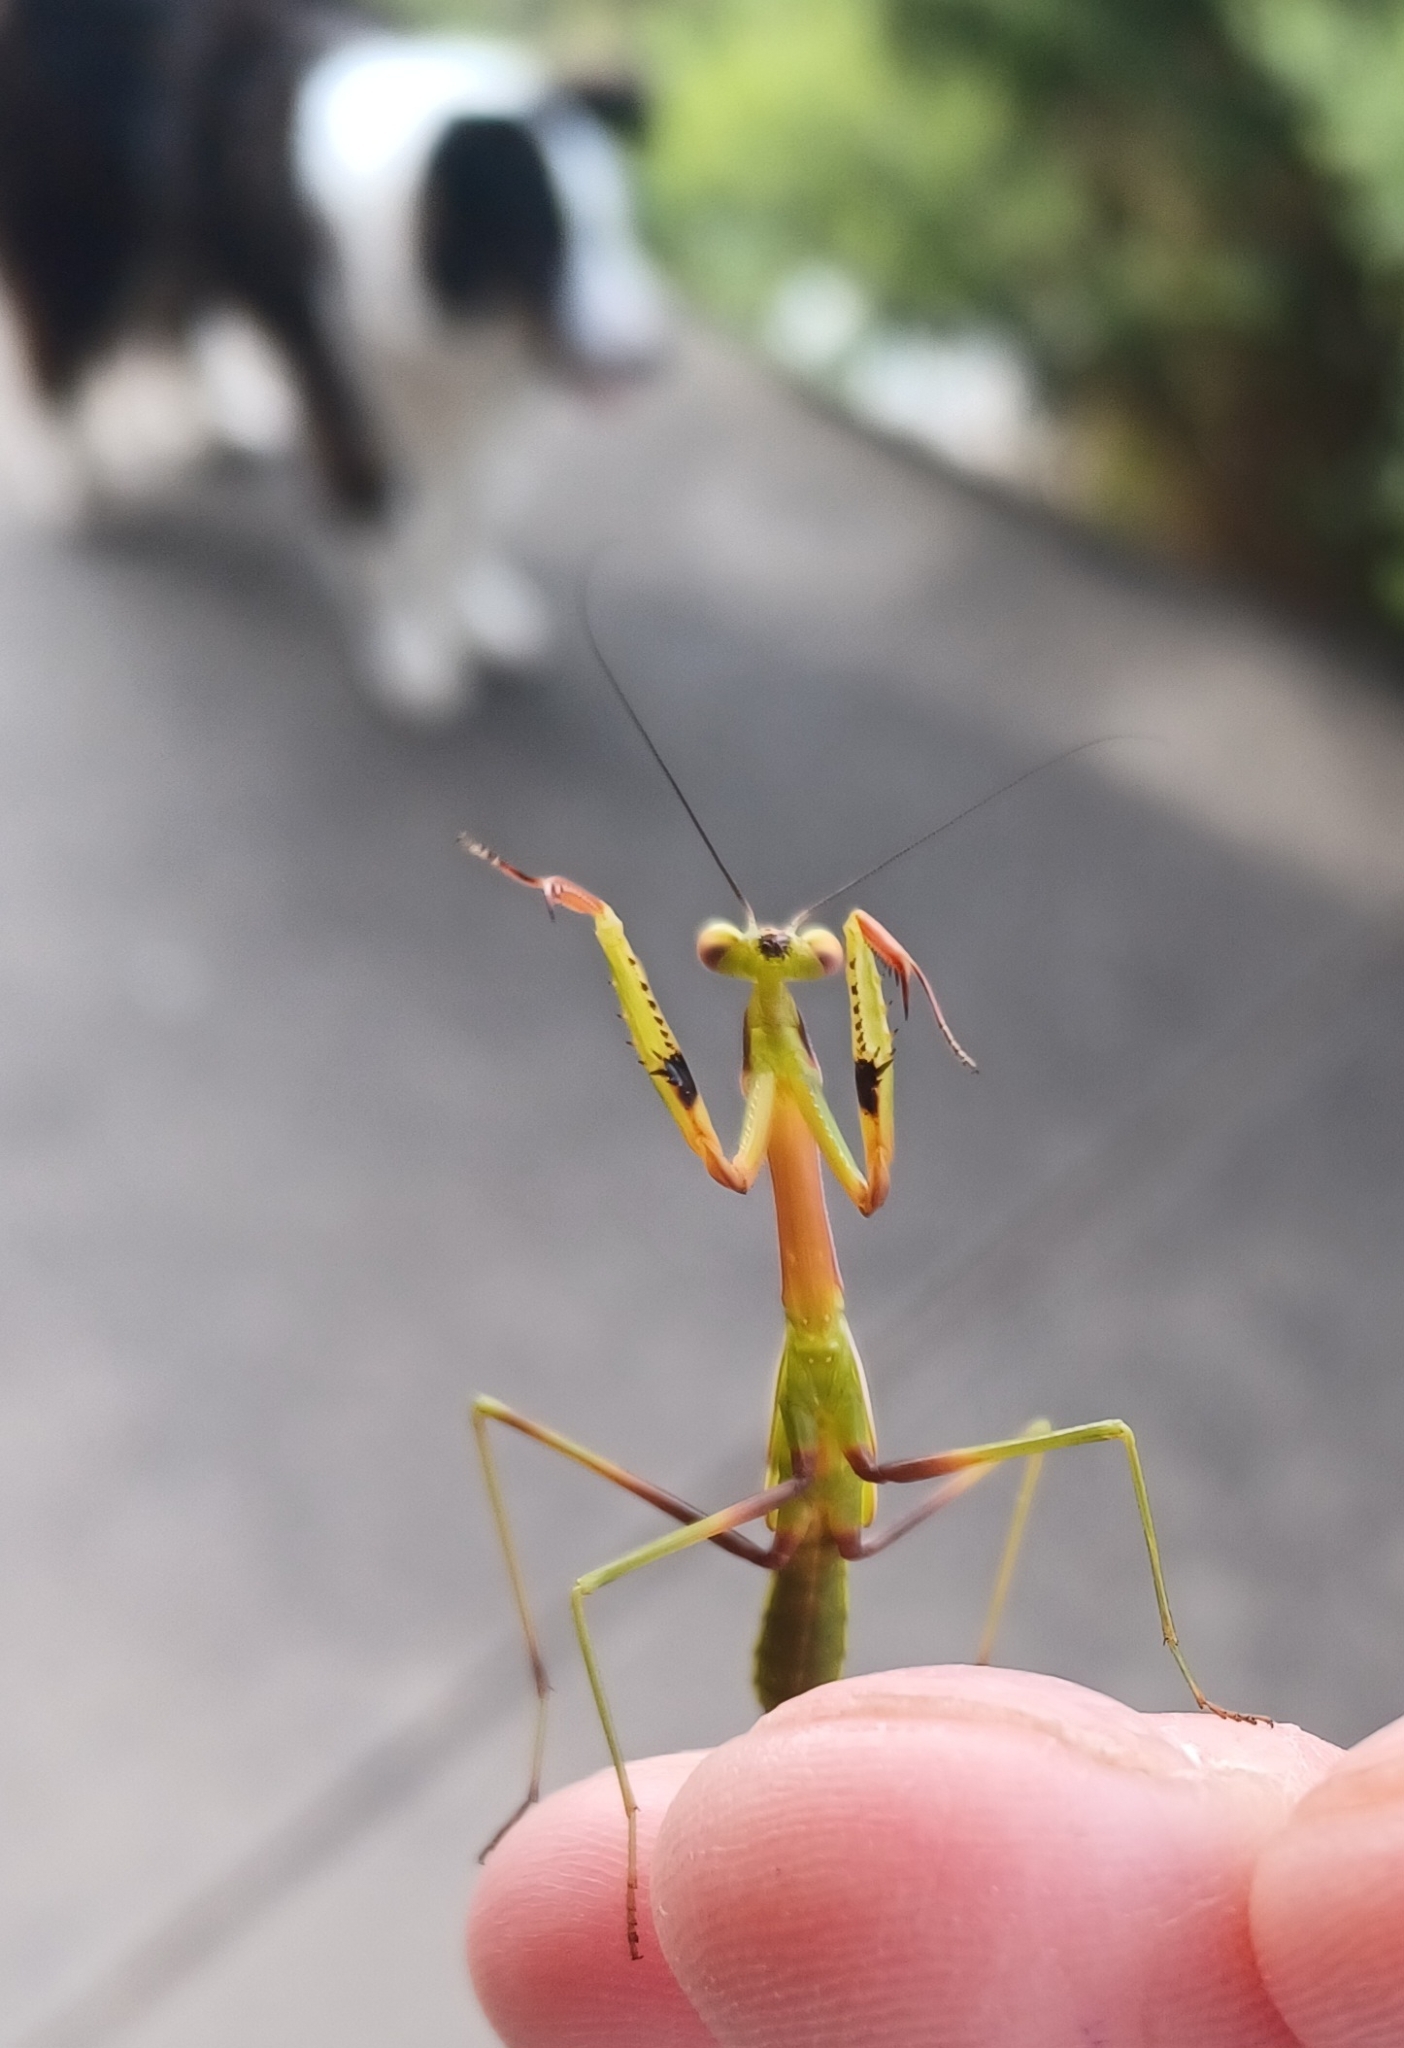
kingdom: Animalia
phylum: Arthropoda
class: Insecta
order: Mantodea
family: Mantidae
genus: Pseudomantis
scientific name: Pseudomantis albofimbriata
